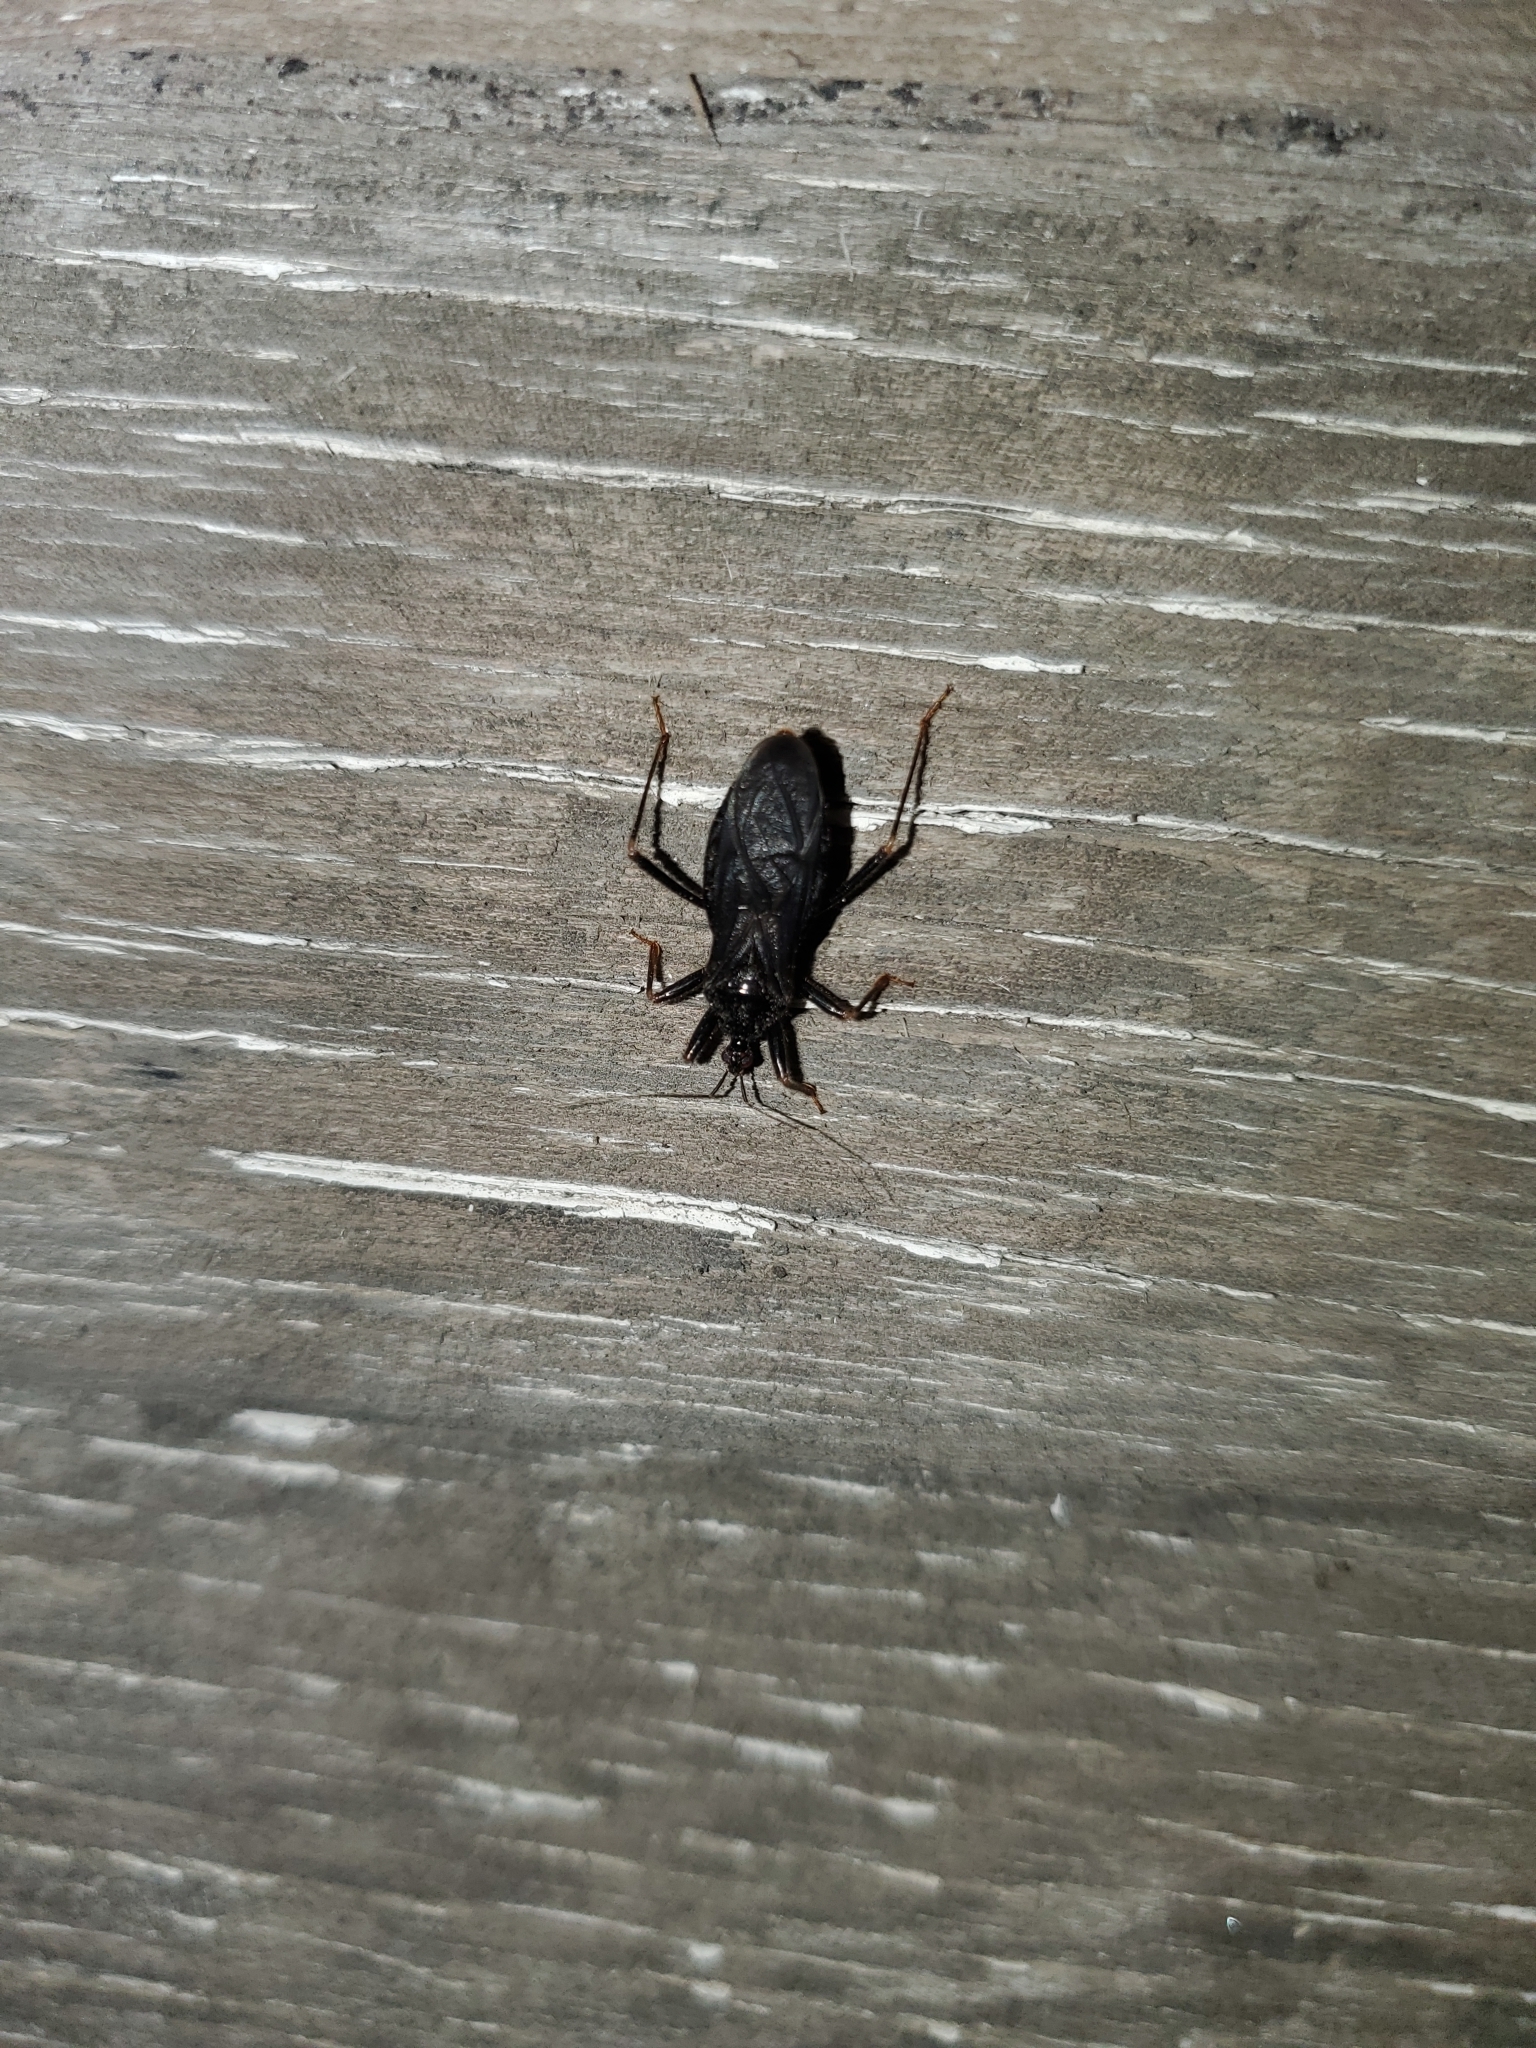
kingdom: Animalia
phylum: Arthropoda
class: Insecta
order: Hemiptera
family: Reduviidae
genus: Reduvius
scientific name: Reduvius personatus
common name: Masked hunter
